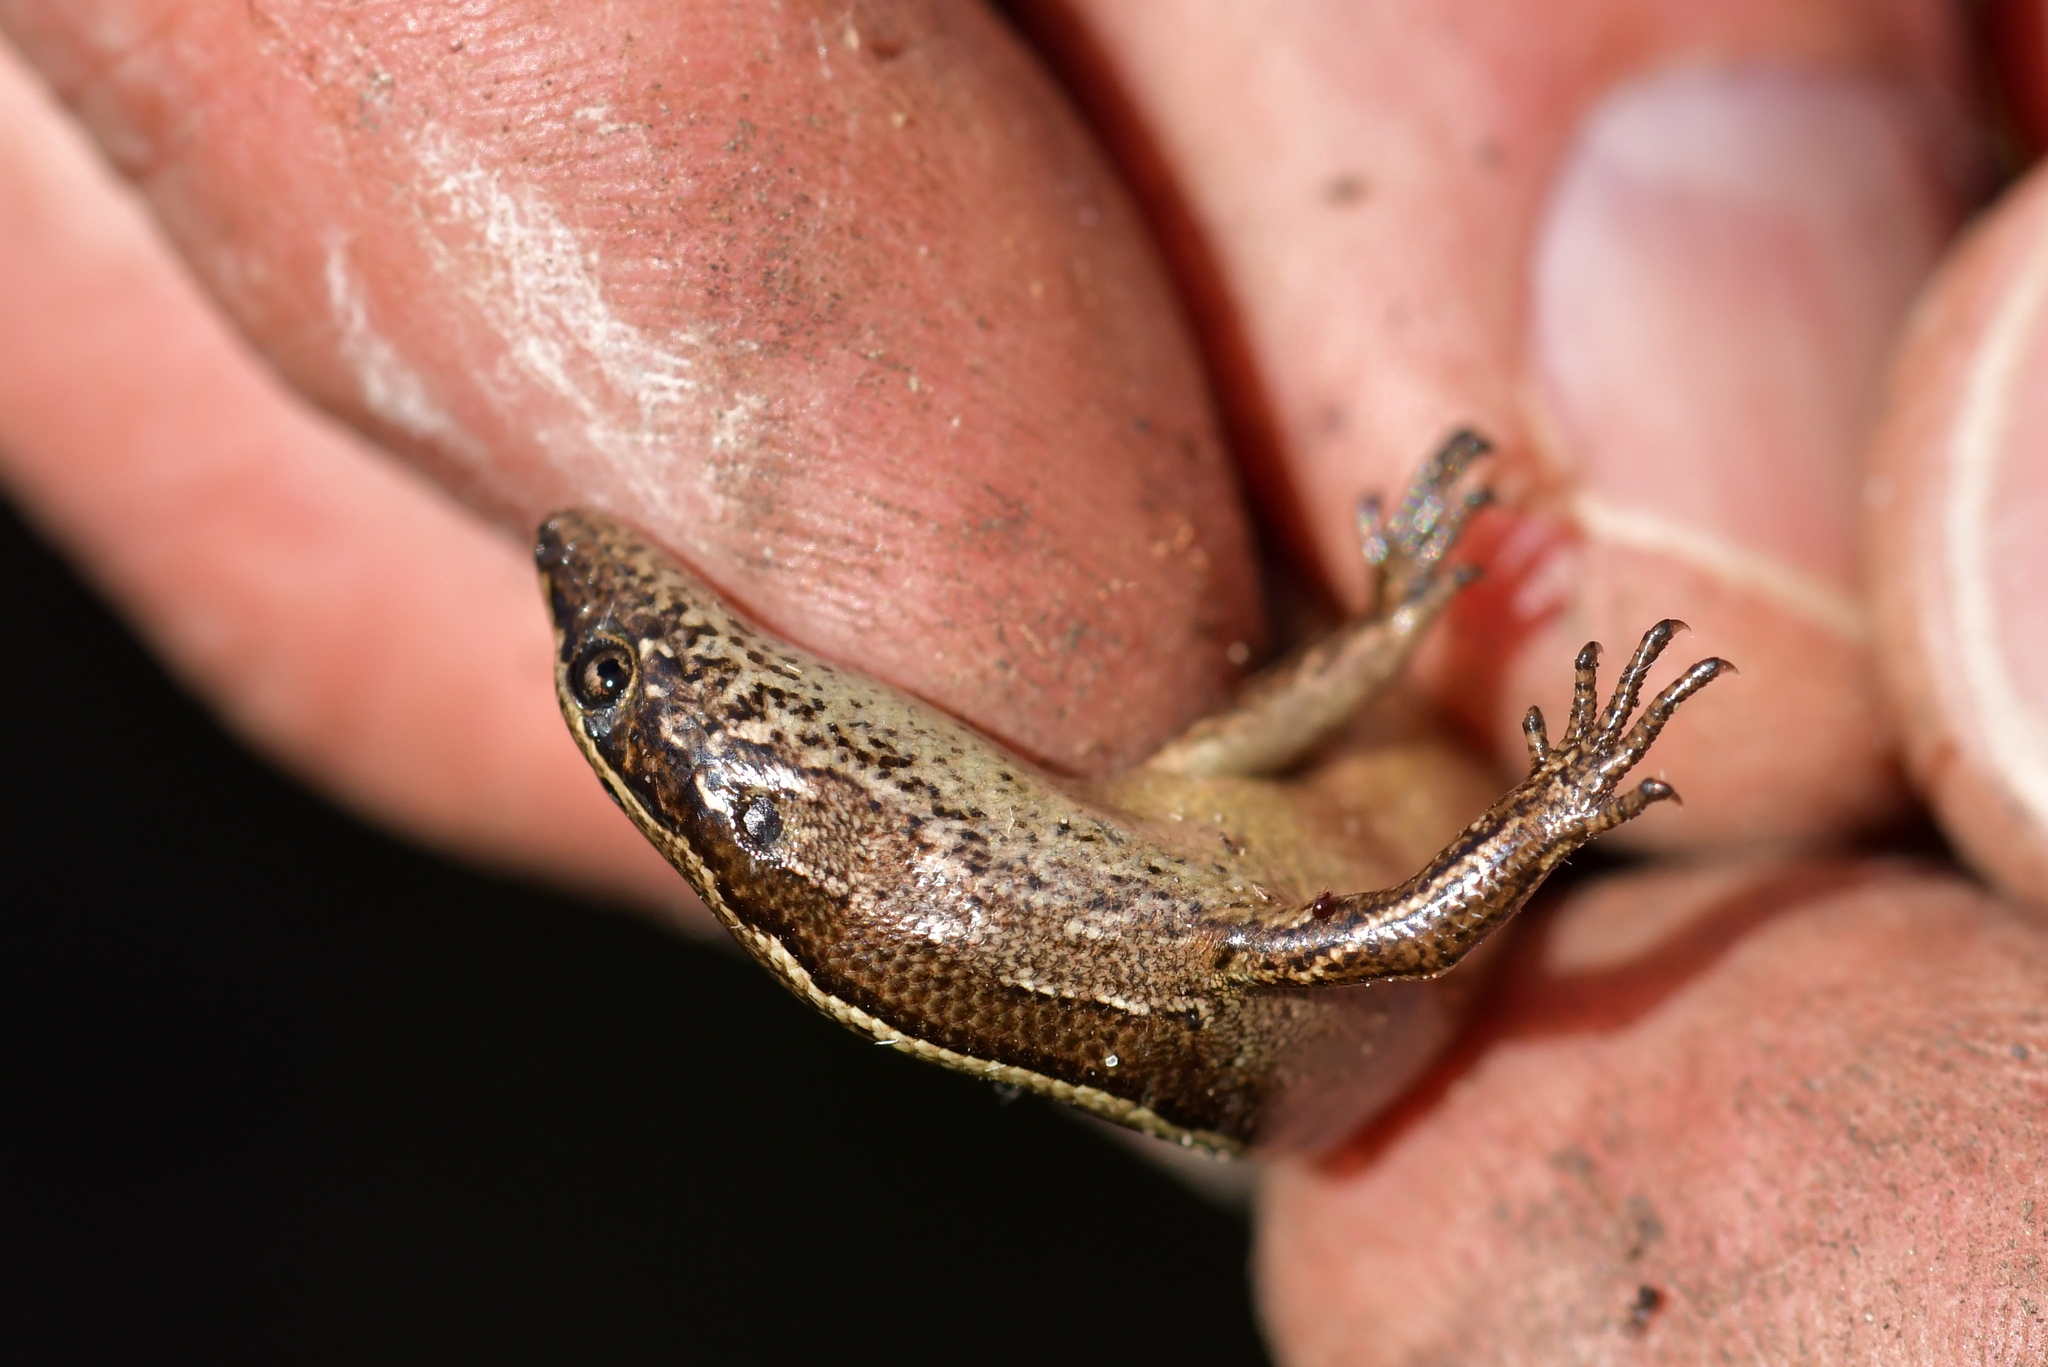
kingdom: Animalia
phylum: Chordata
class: Squamata
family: Scincidae
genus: Oligosoma
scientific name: Oligosoma zelandicum
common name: Brown skink
